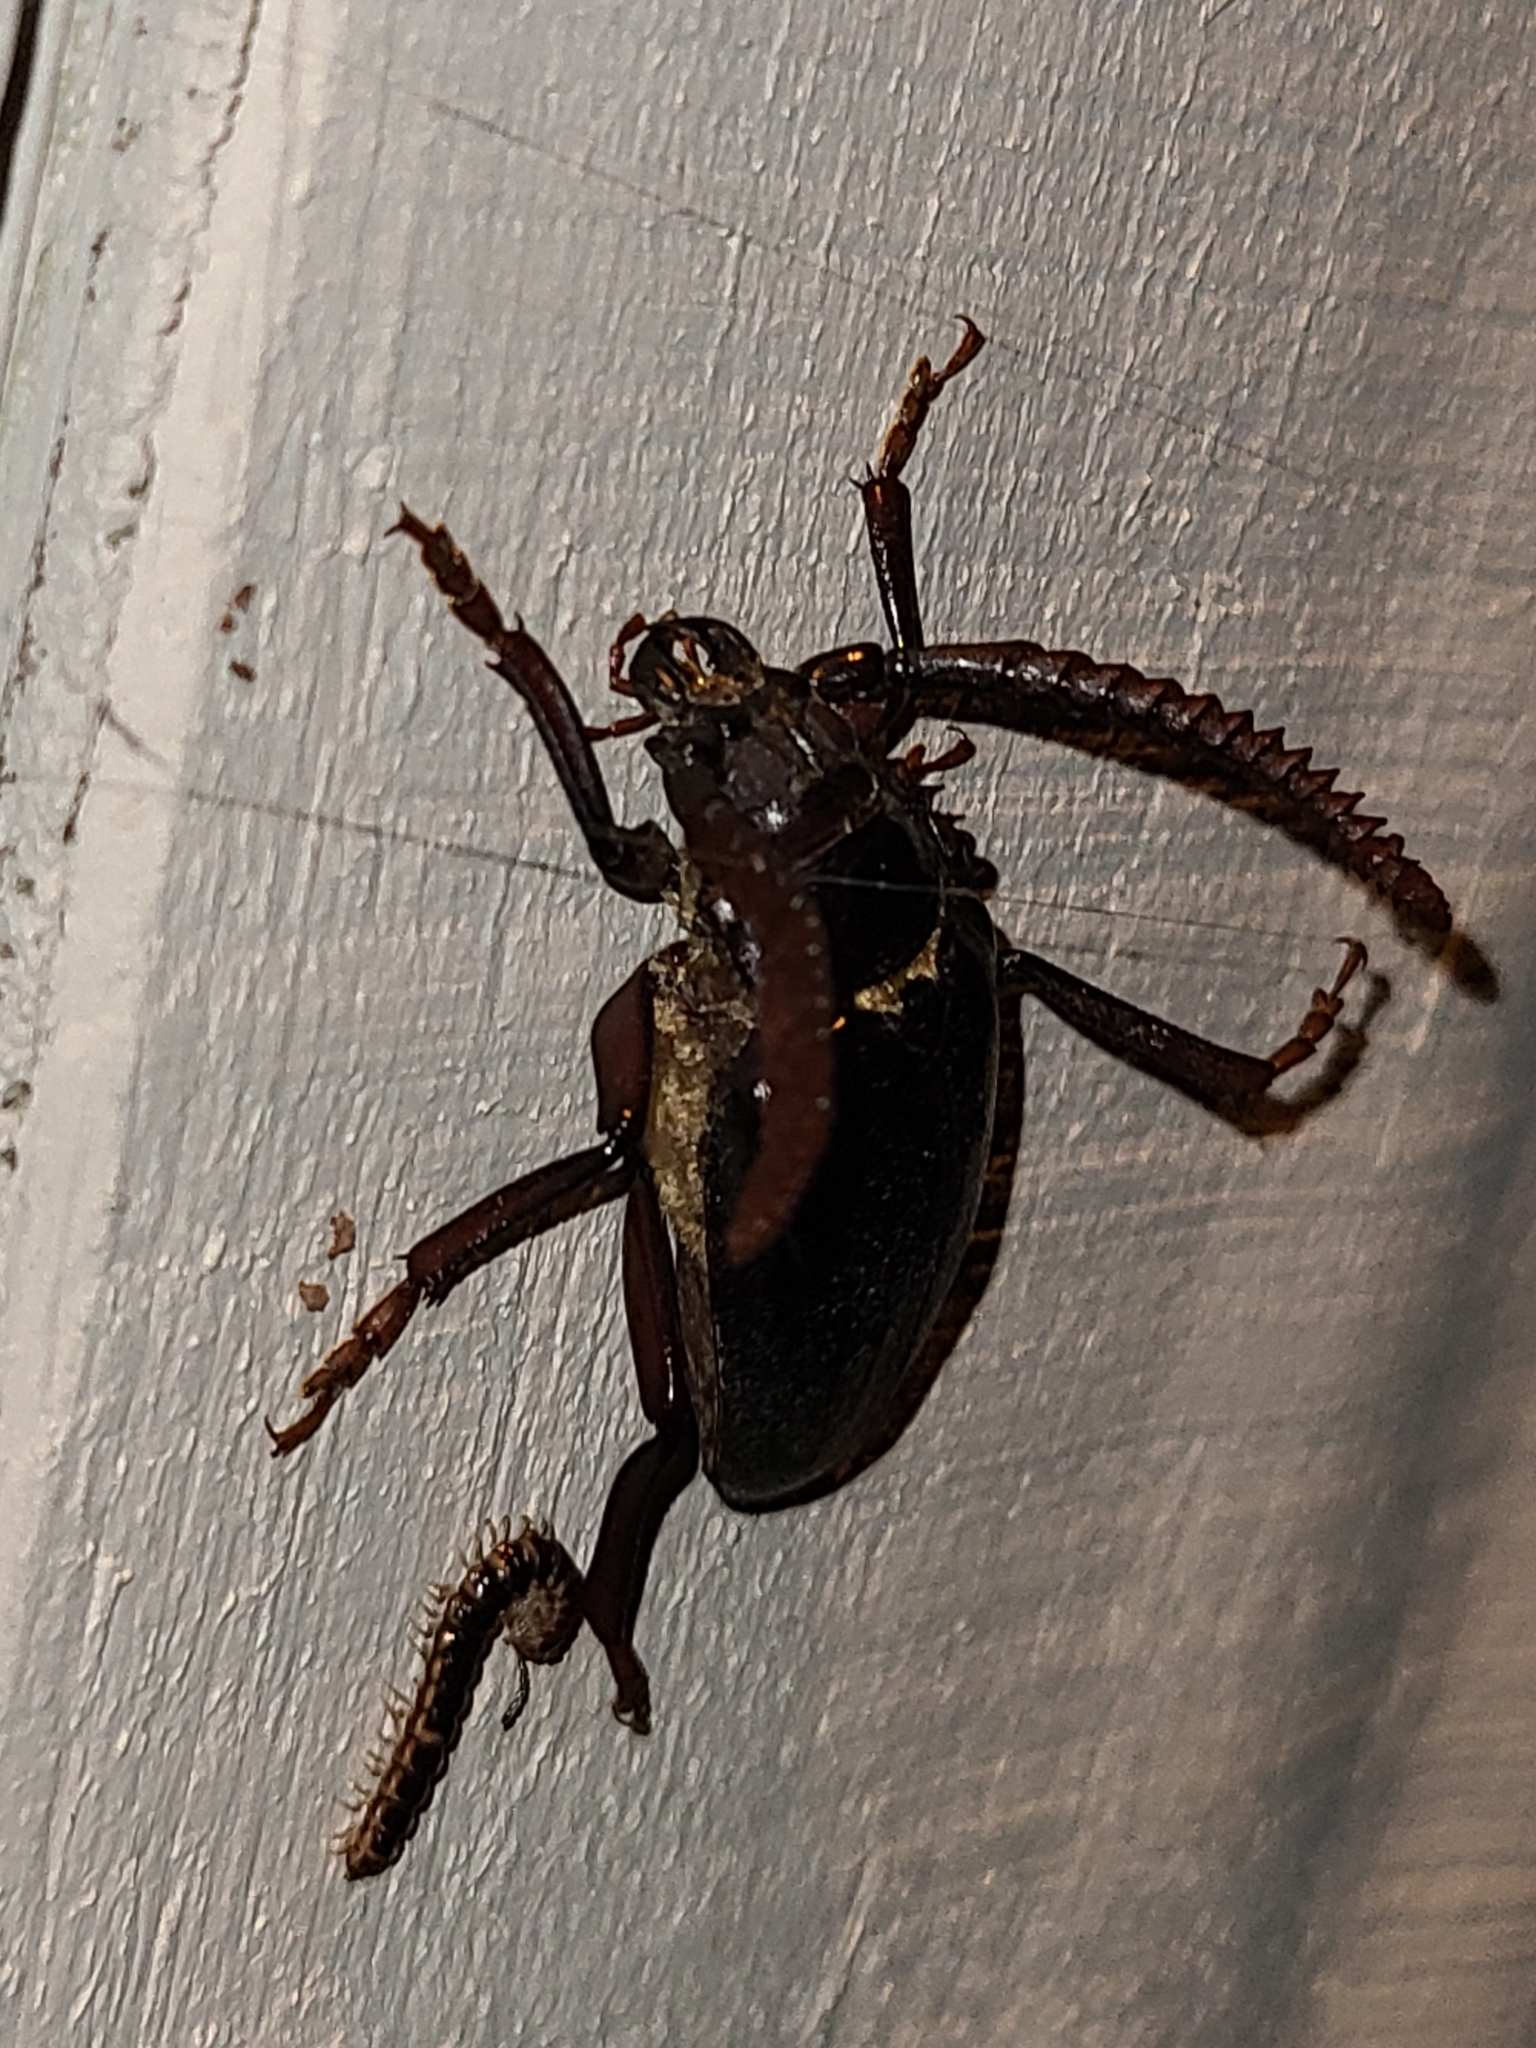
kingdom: Animalia
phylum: Arthropoda
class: Insecta
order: Coleoptera
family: Cerambycidae
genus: Prionus
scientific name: Prionus imbricornis
